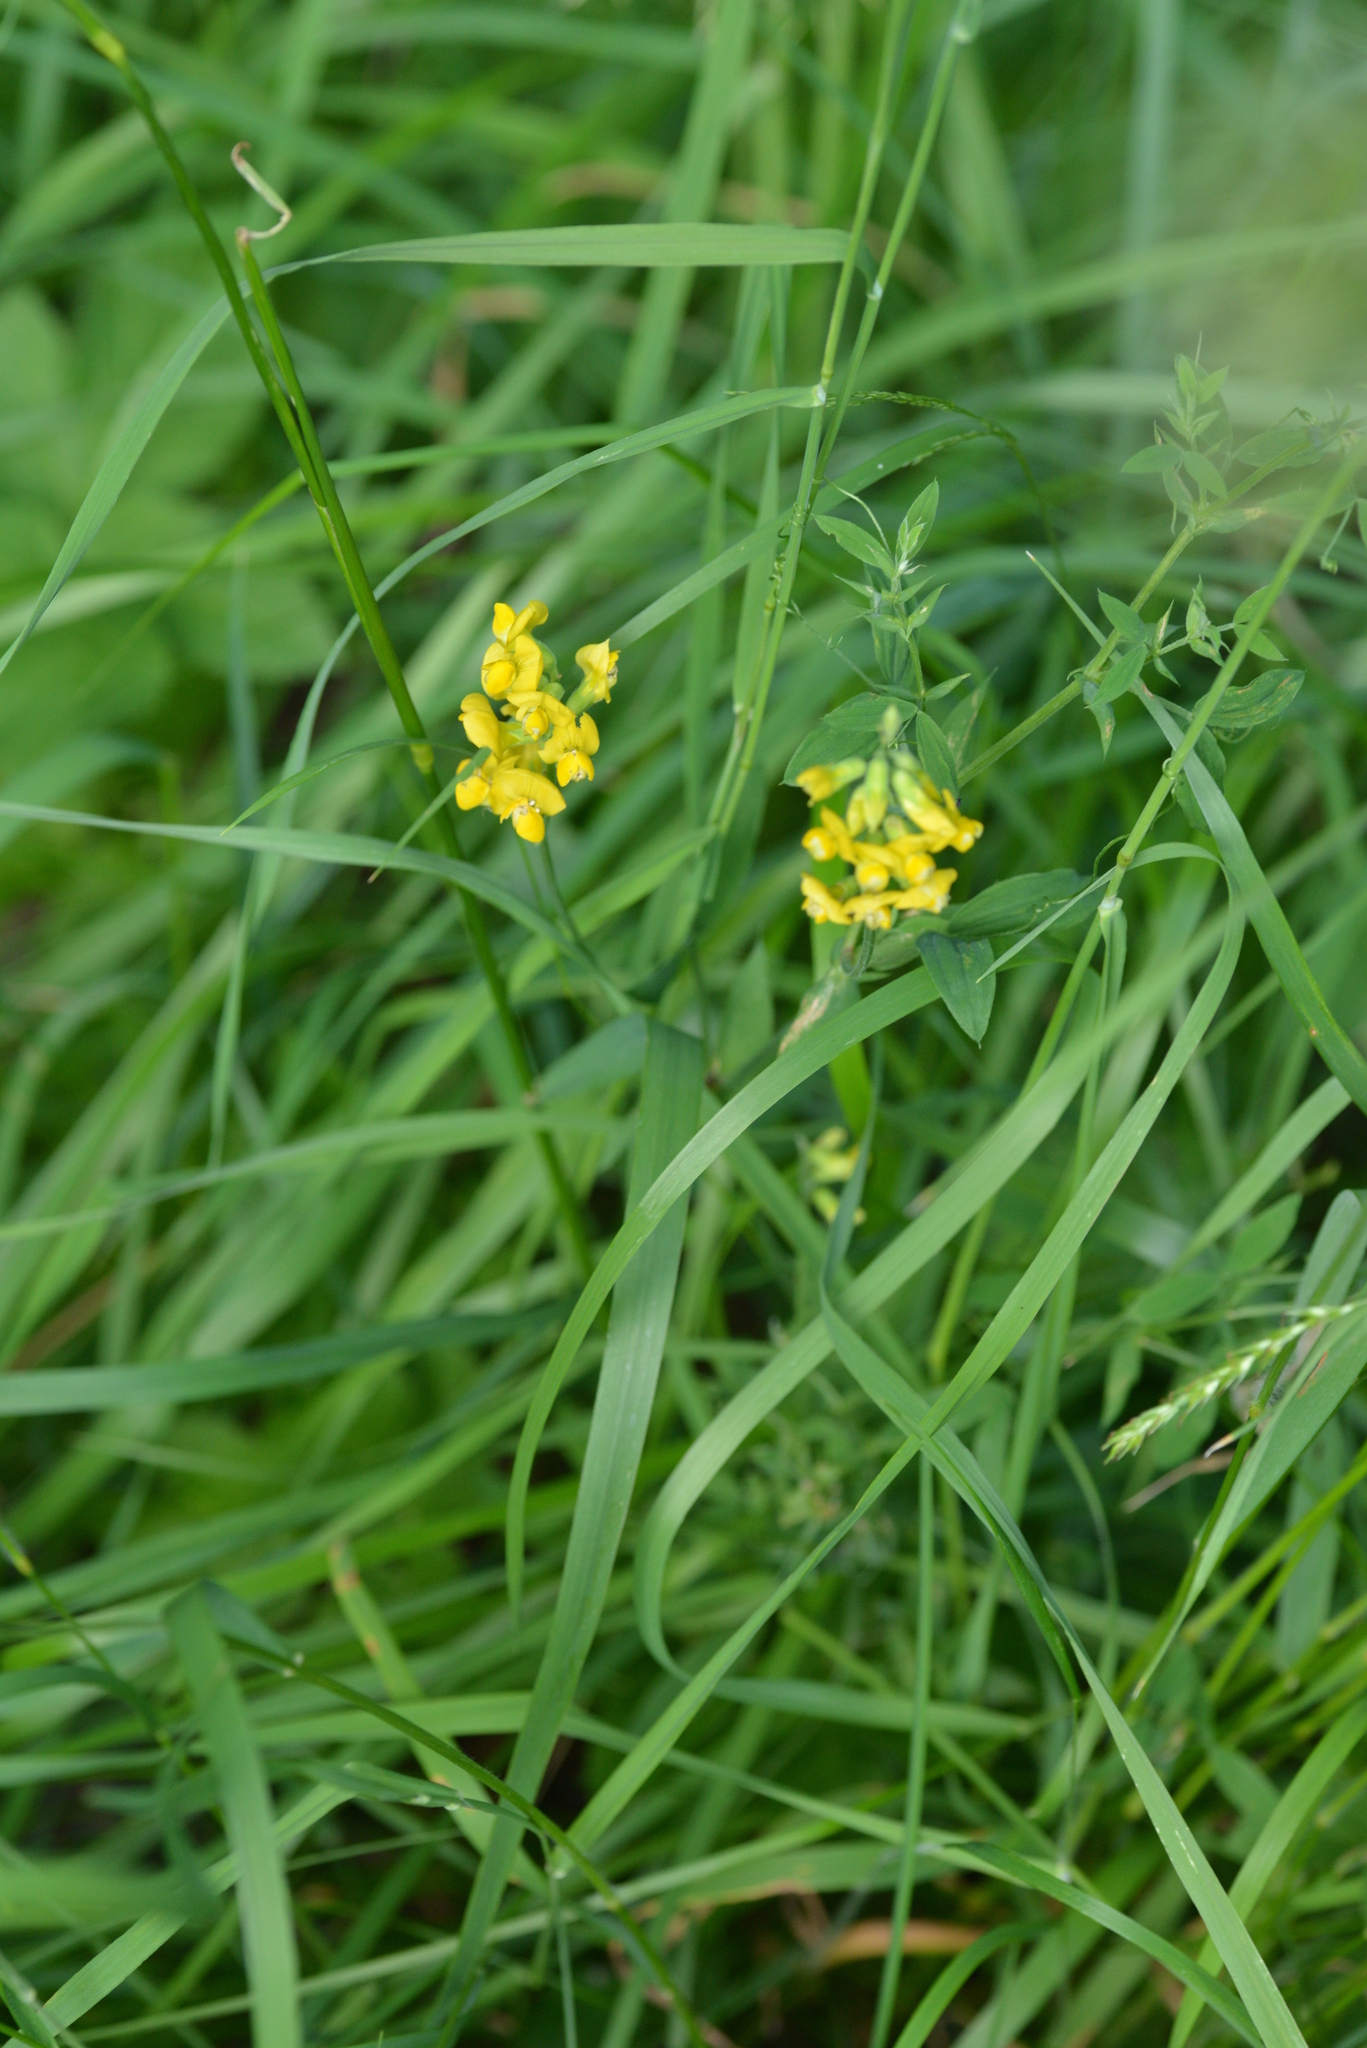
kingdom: Plantae
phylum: Tracheophyta
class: Magnoliopsida
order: Fabales
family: Fabaceae
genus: Lathyrus
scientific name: Lathyrus pratensis
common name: Meadow vetchling
